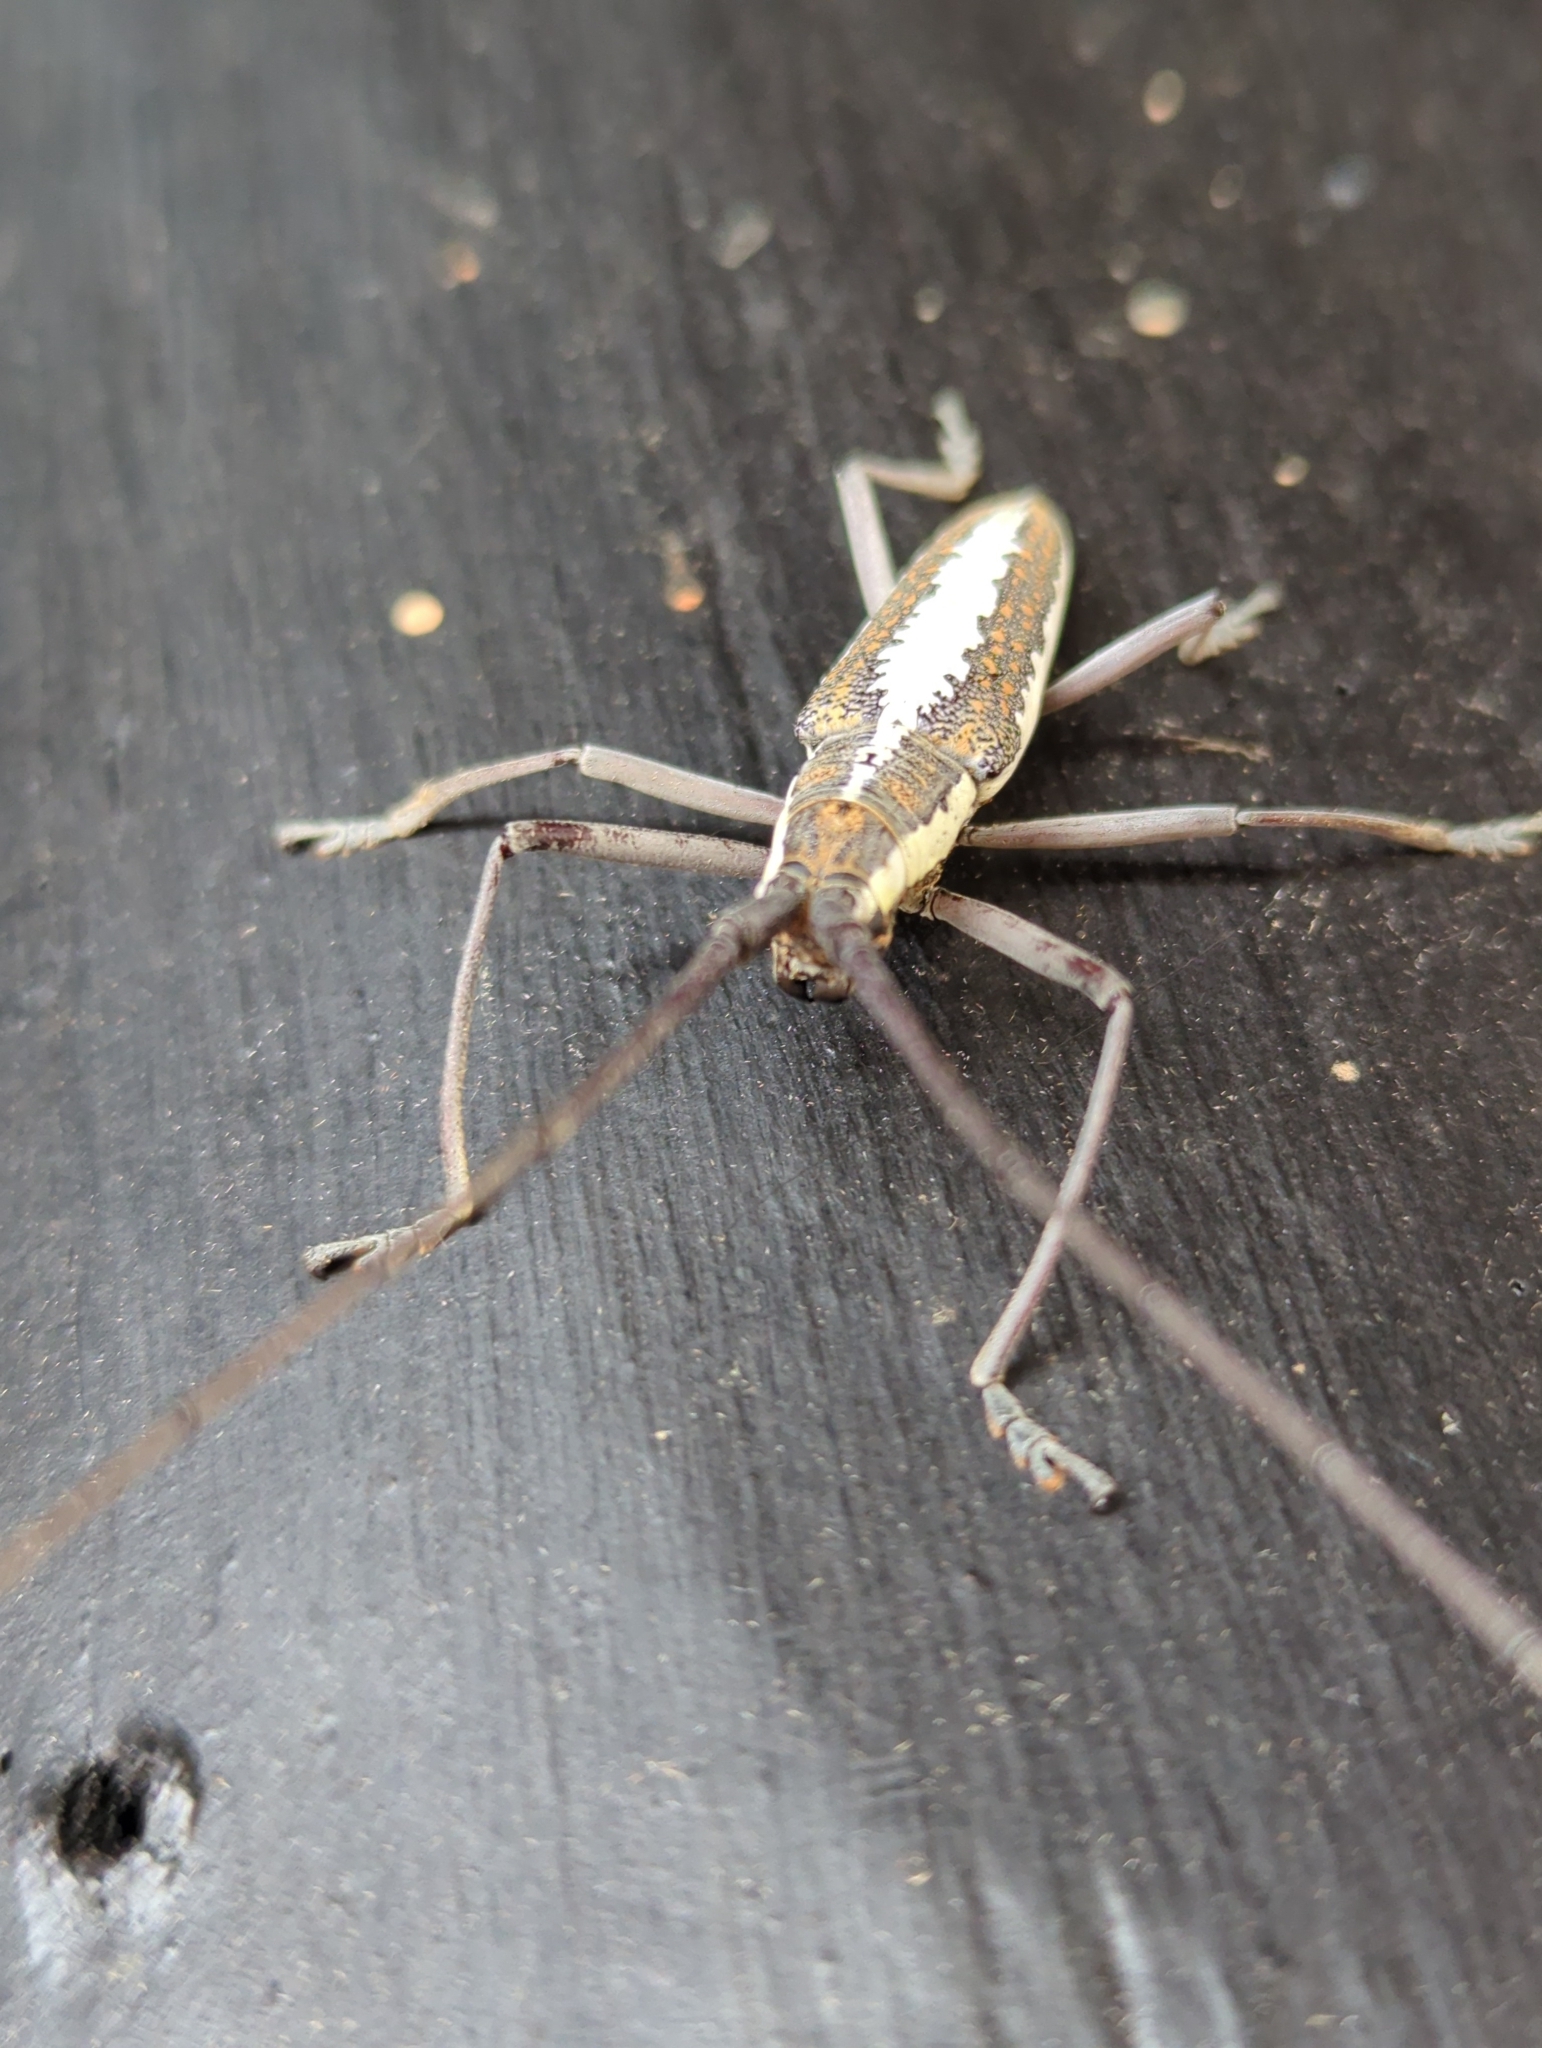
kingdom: Animalia
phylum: Arthropoda
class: Insecta
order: Coleoptera
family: Cerambycidae
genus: Neoptychodes
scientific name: Neoptychodes trilineatus
